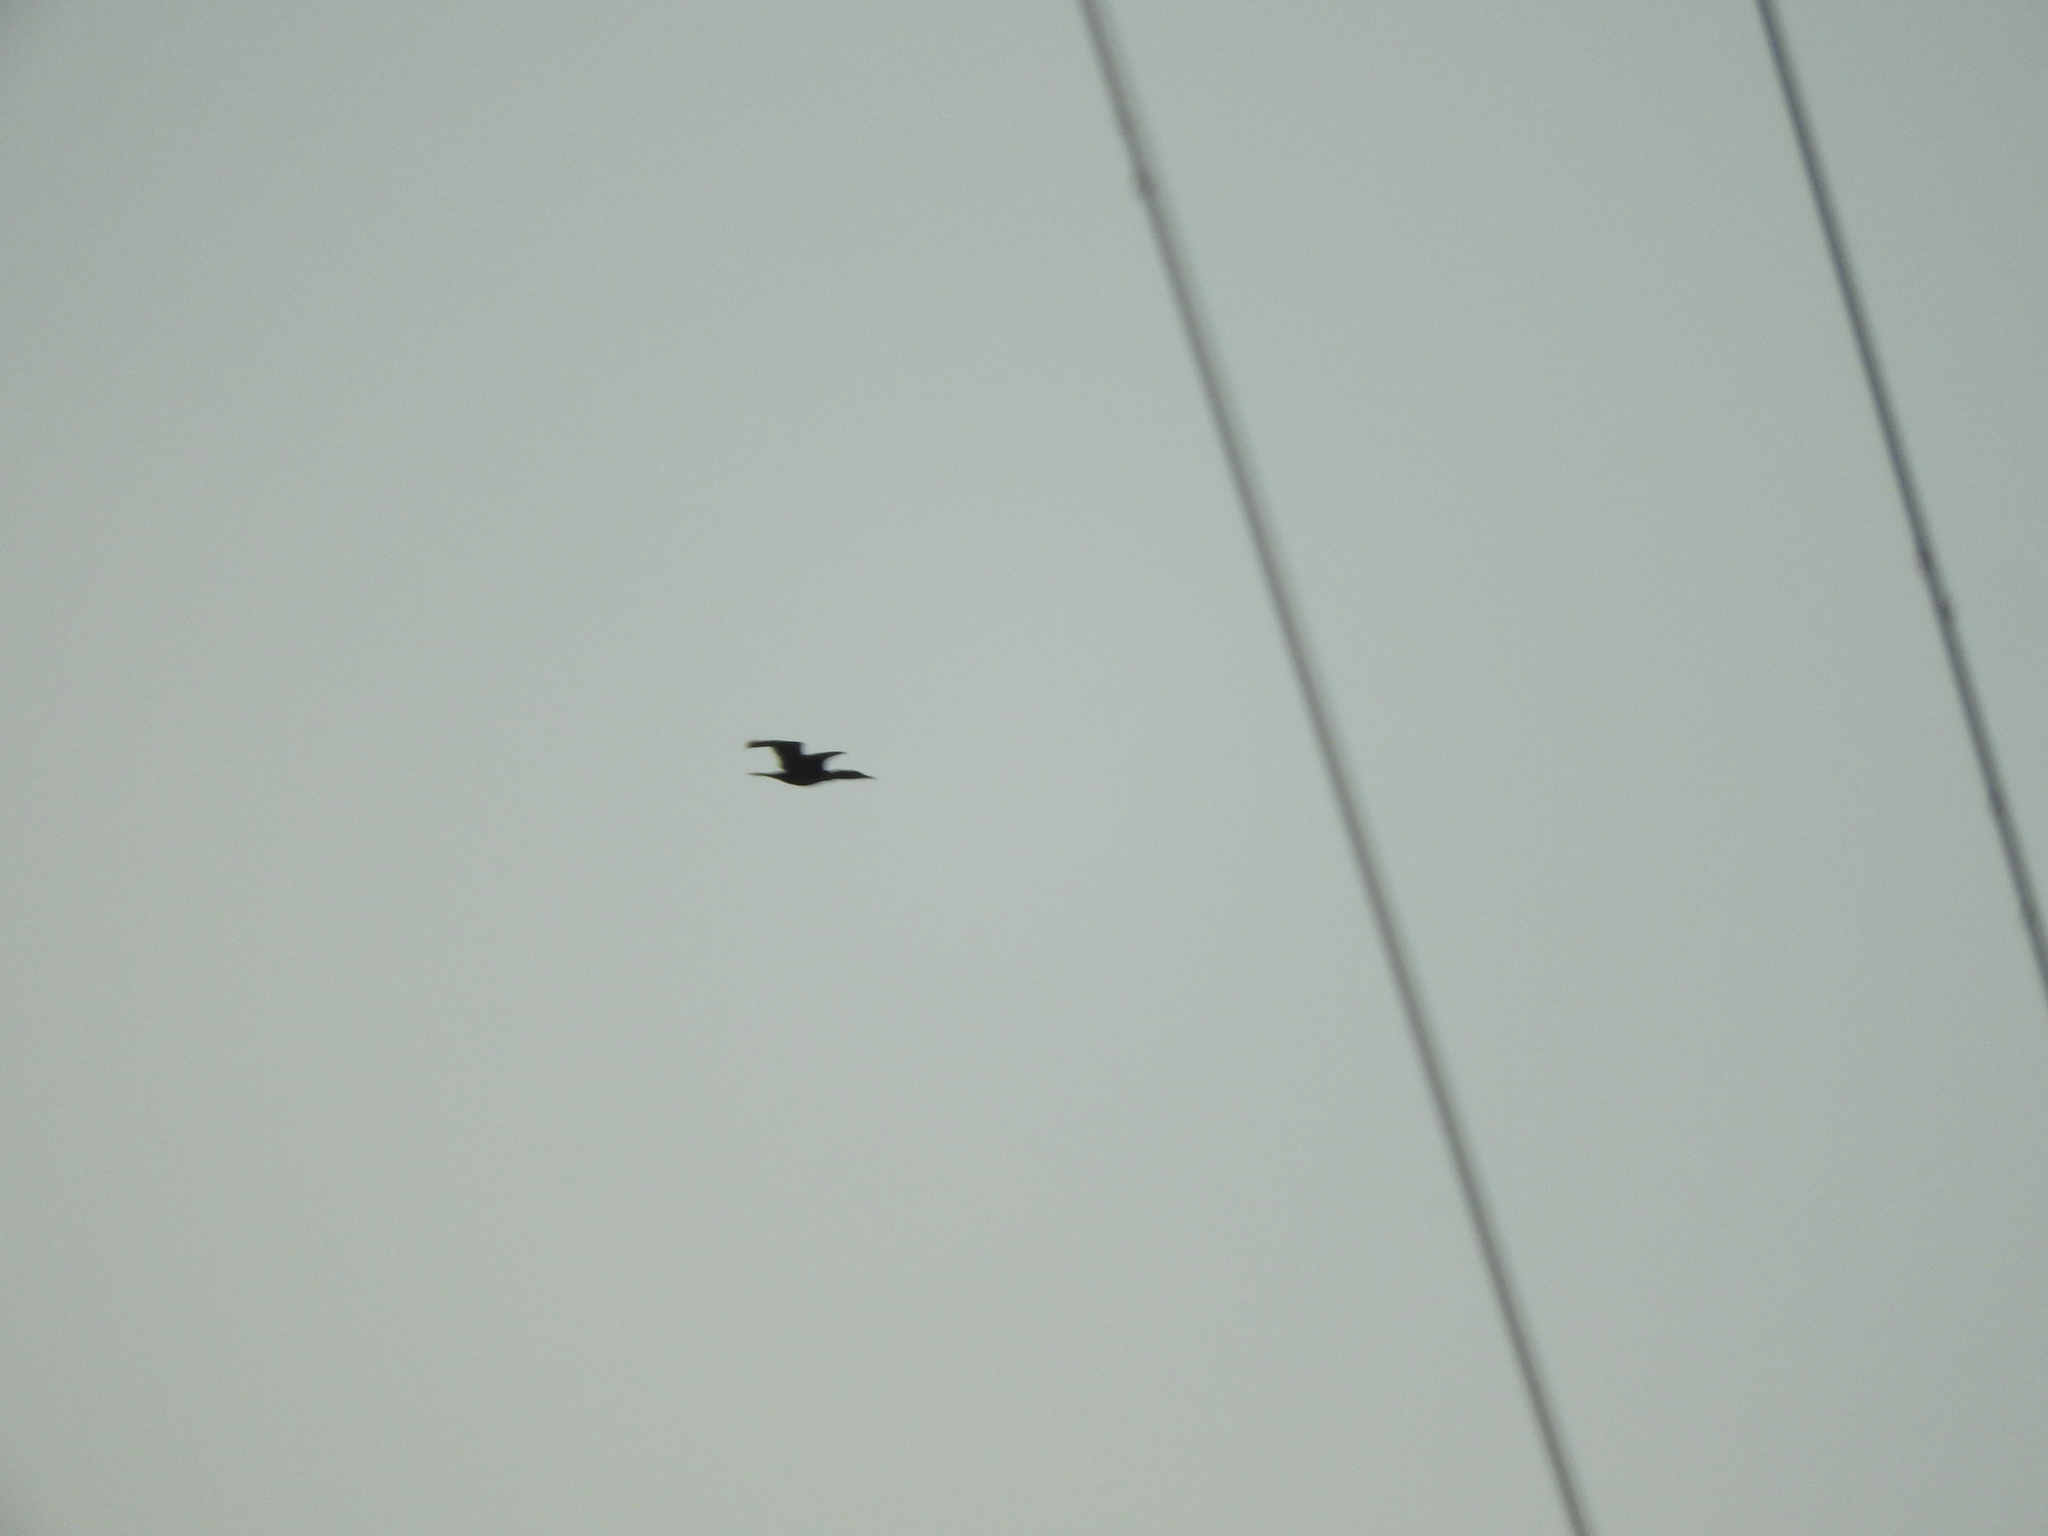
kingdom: Animalia
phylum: Chordata
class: Aves
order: Suliformes
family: Phalacrocoracidae
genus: Phalacrocorax
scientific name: Phalacrocorax brasilianus
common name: Neotropic cormorant
